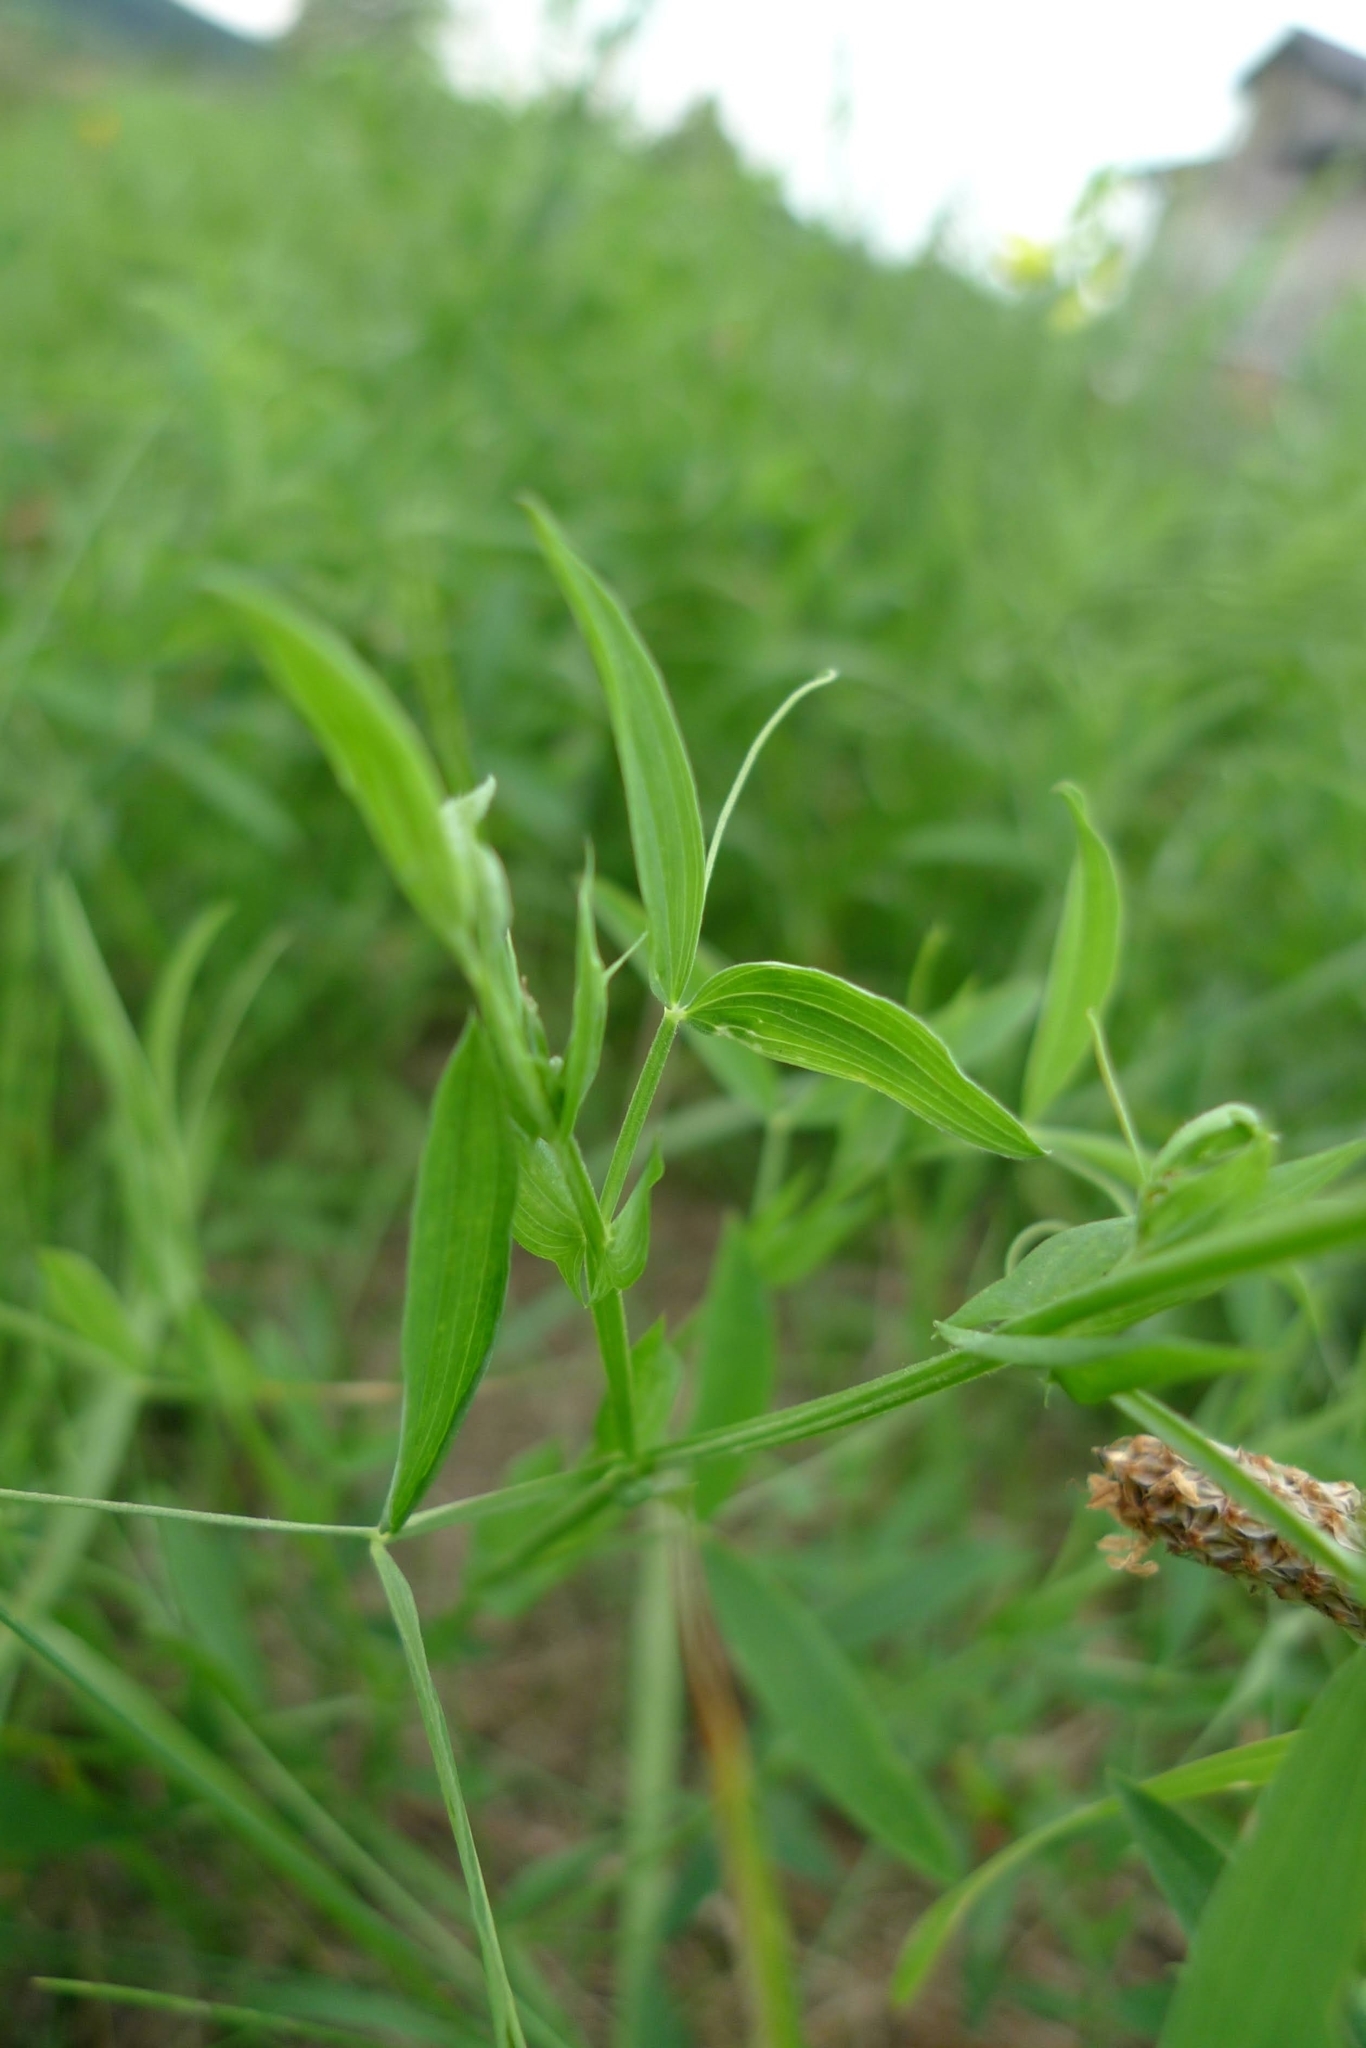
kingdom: Plantae
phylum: Tracheophyta
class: Magnoliopsida
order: Fabales
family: Fabaceae
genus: Lathyrus
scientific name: Lathyrus pratensis
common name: Meadow vetchling
